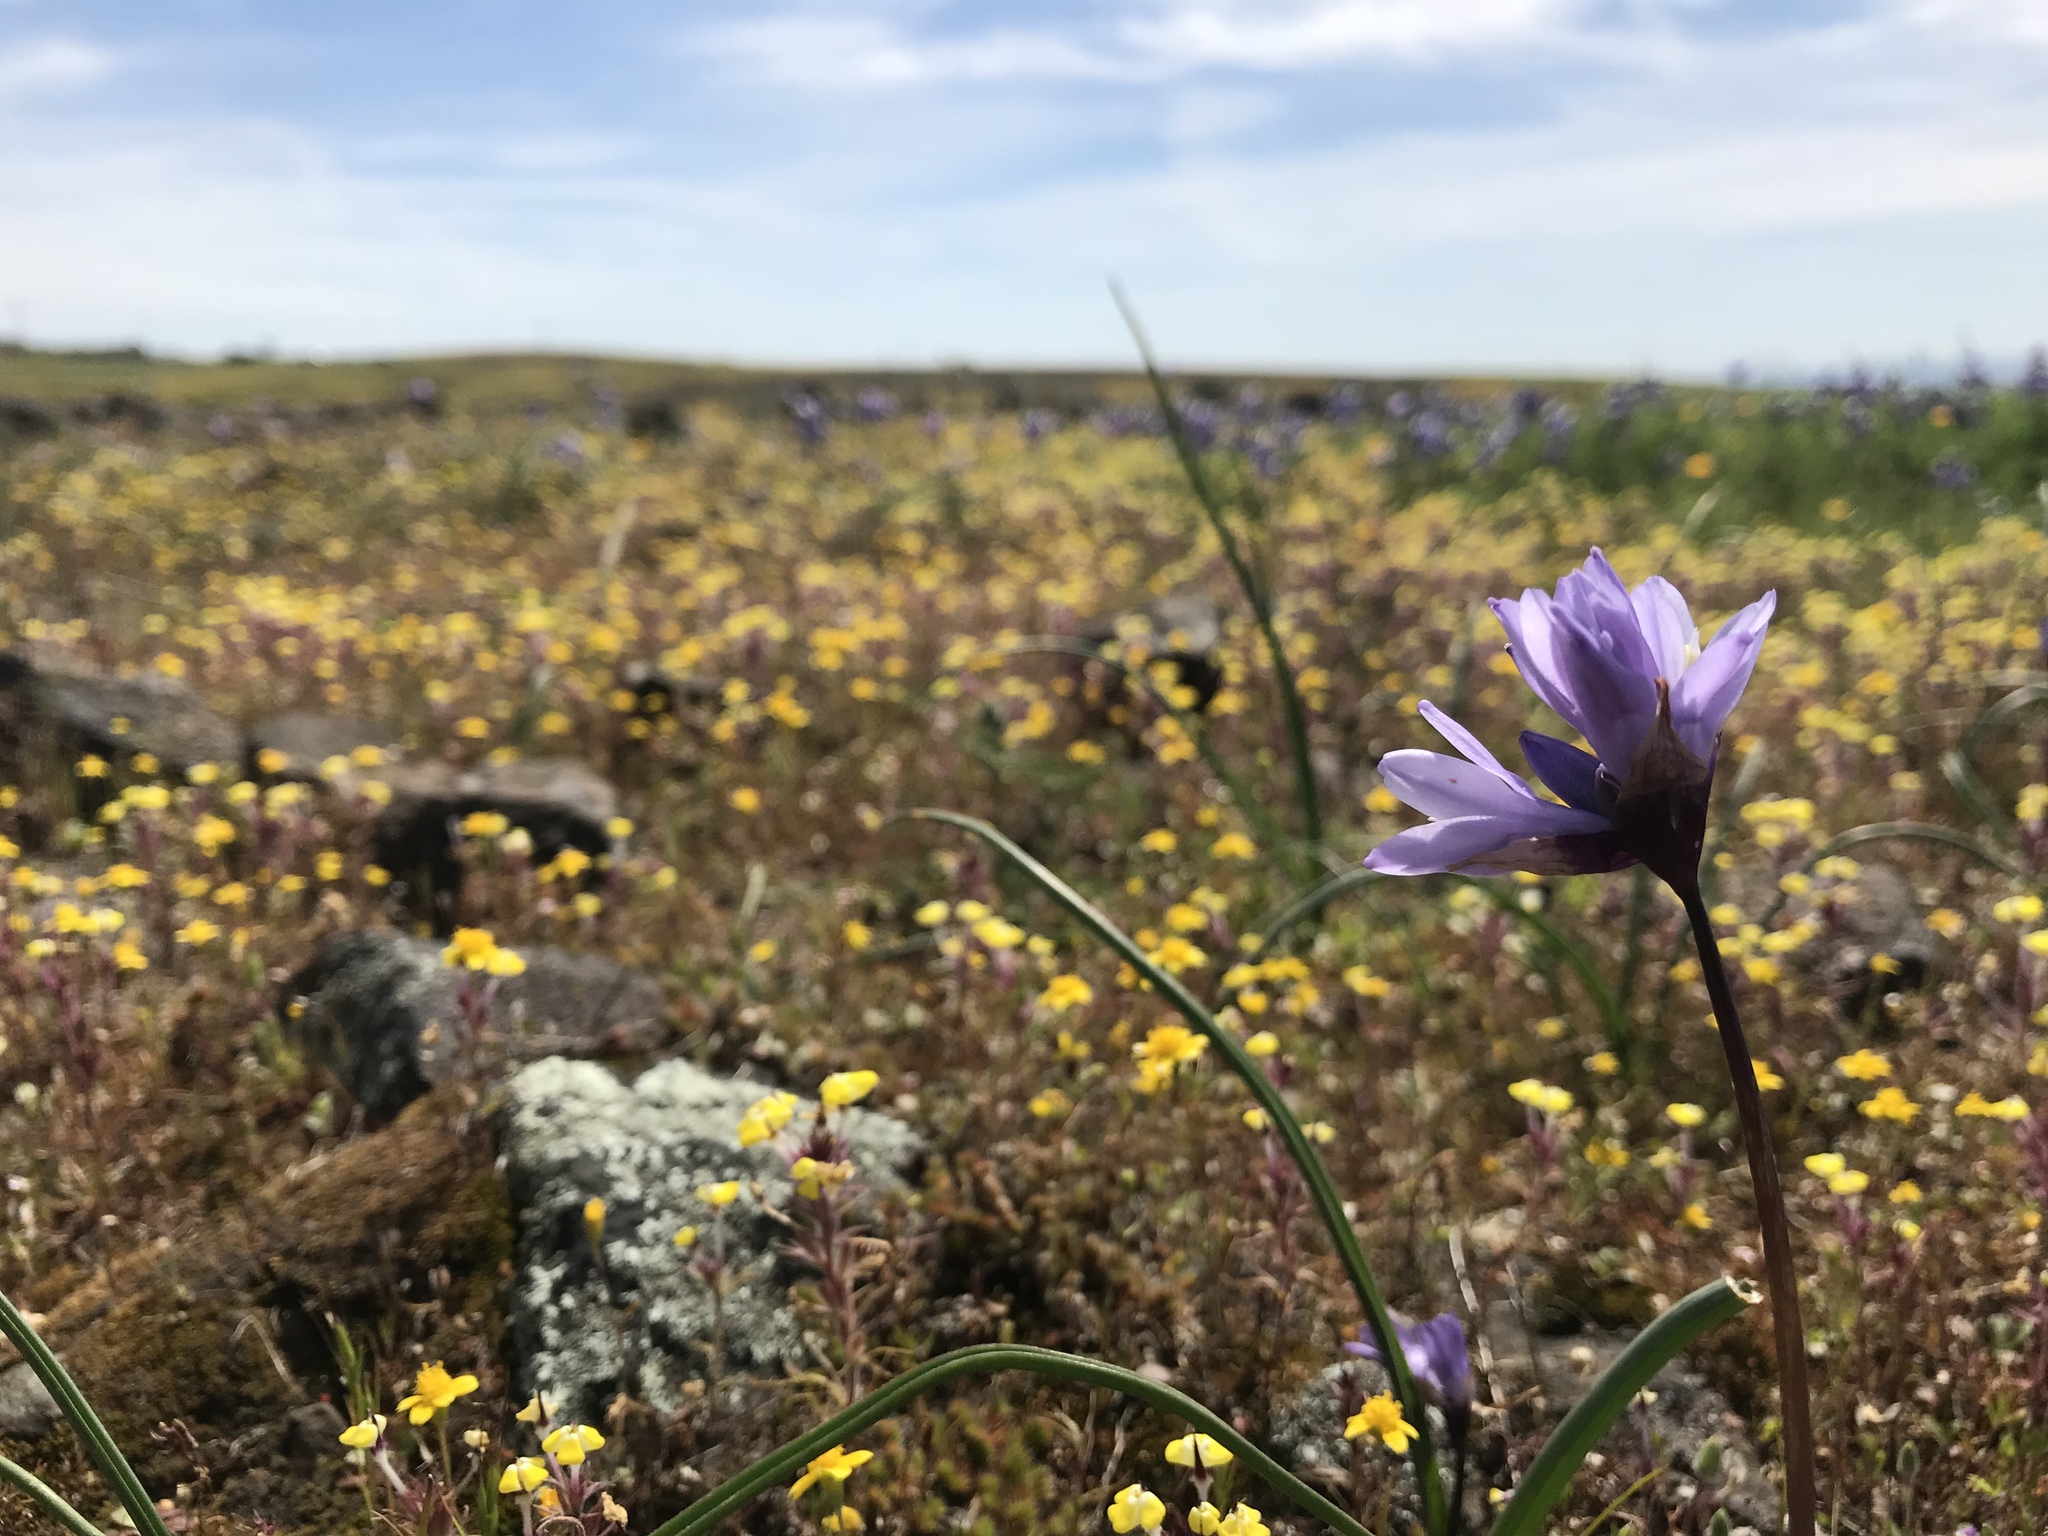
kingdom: Plantae
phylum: Tracheophyta
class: Liliopsida
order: Asparagales
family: Asparagaceae
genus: Dipterostemon
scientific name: Dipterostemon capitatus
